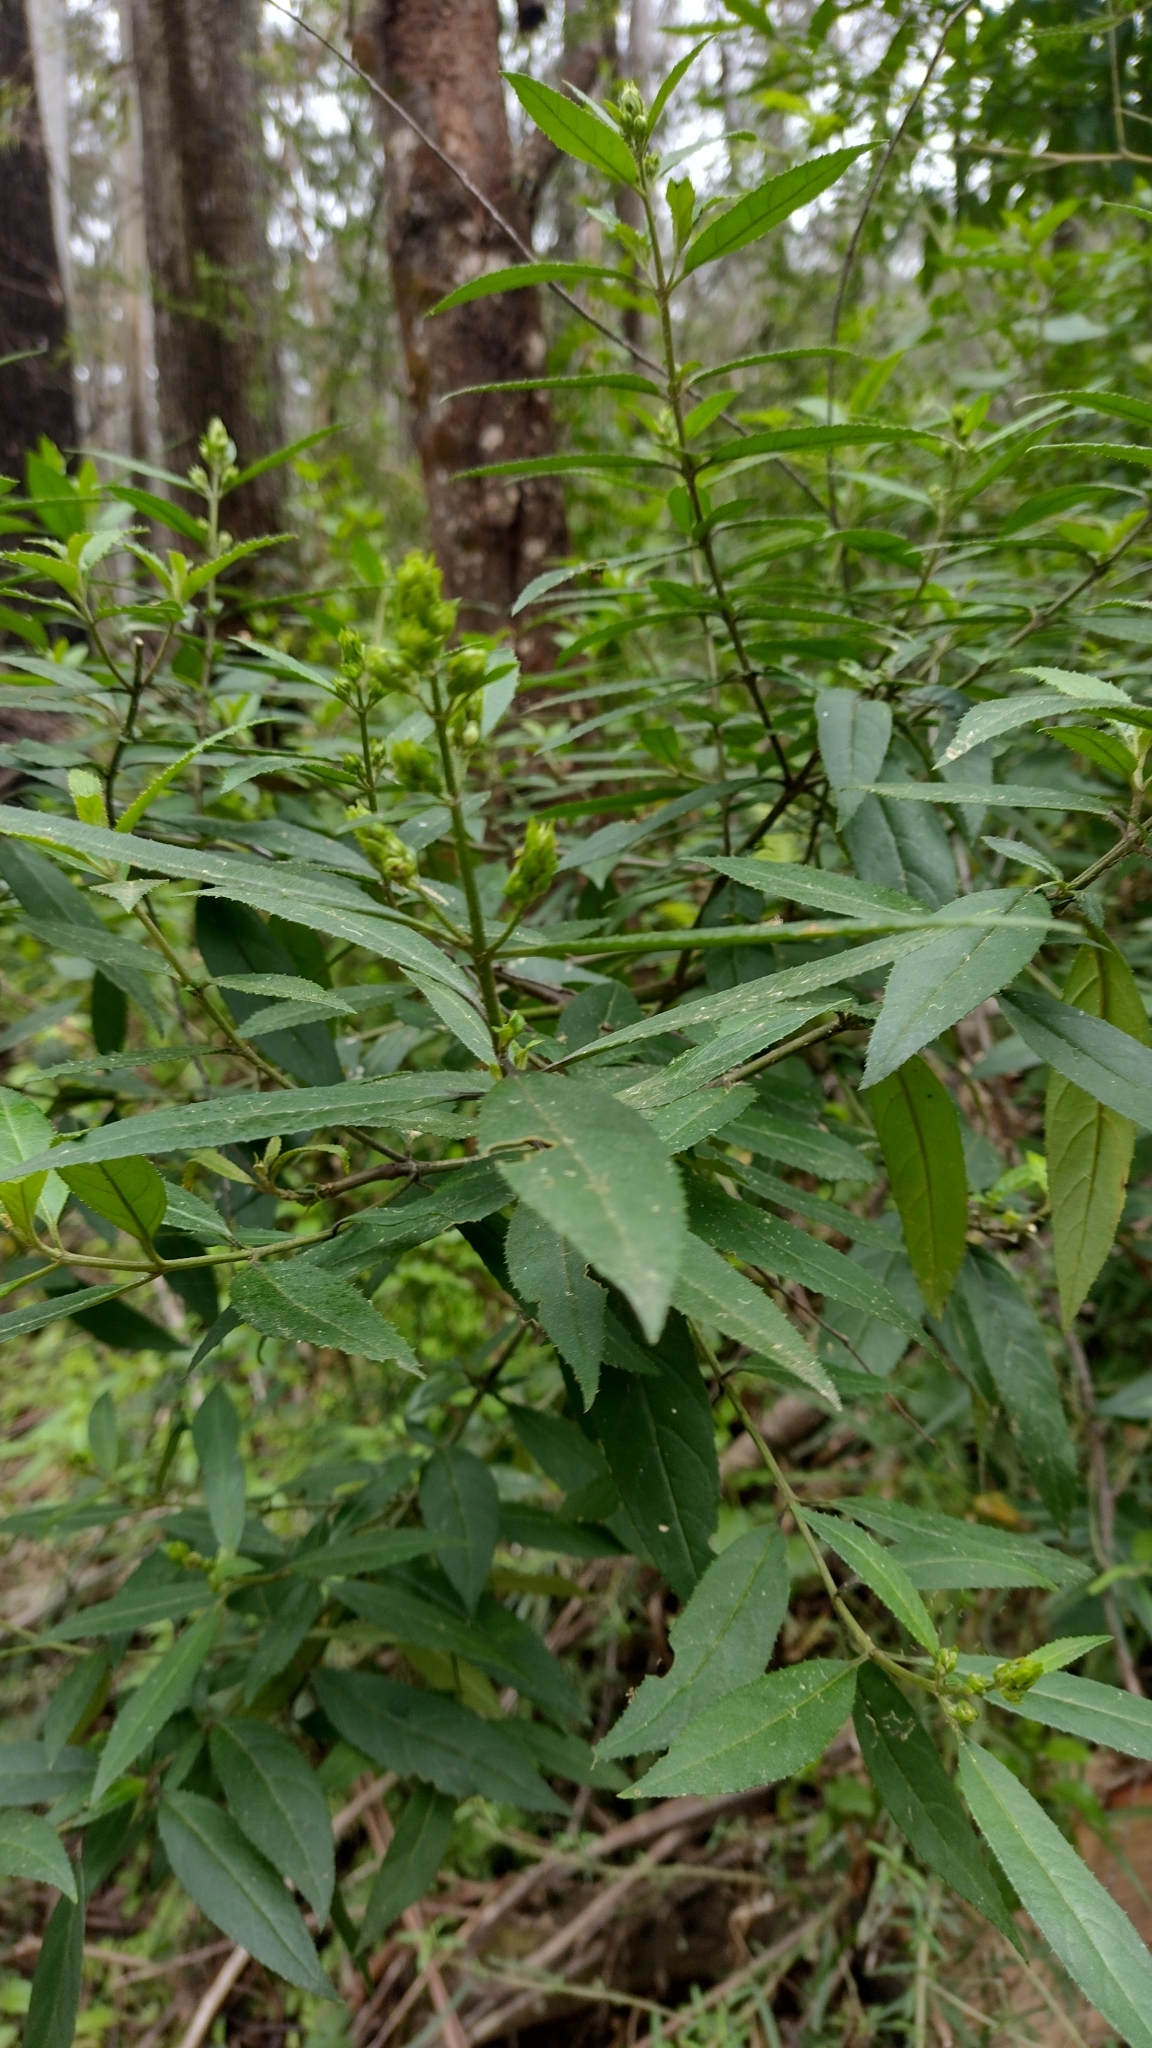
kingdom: Plantae
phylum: Tracheophyta
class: Magnoliopsida
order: Lamiales
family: Lamiaceae
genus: Prostanthera
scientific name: Prostanthera lasianthos
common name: Mountain-lilac
